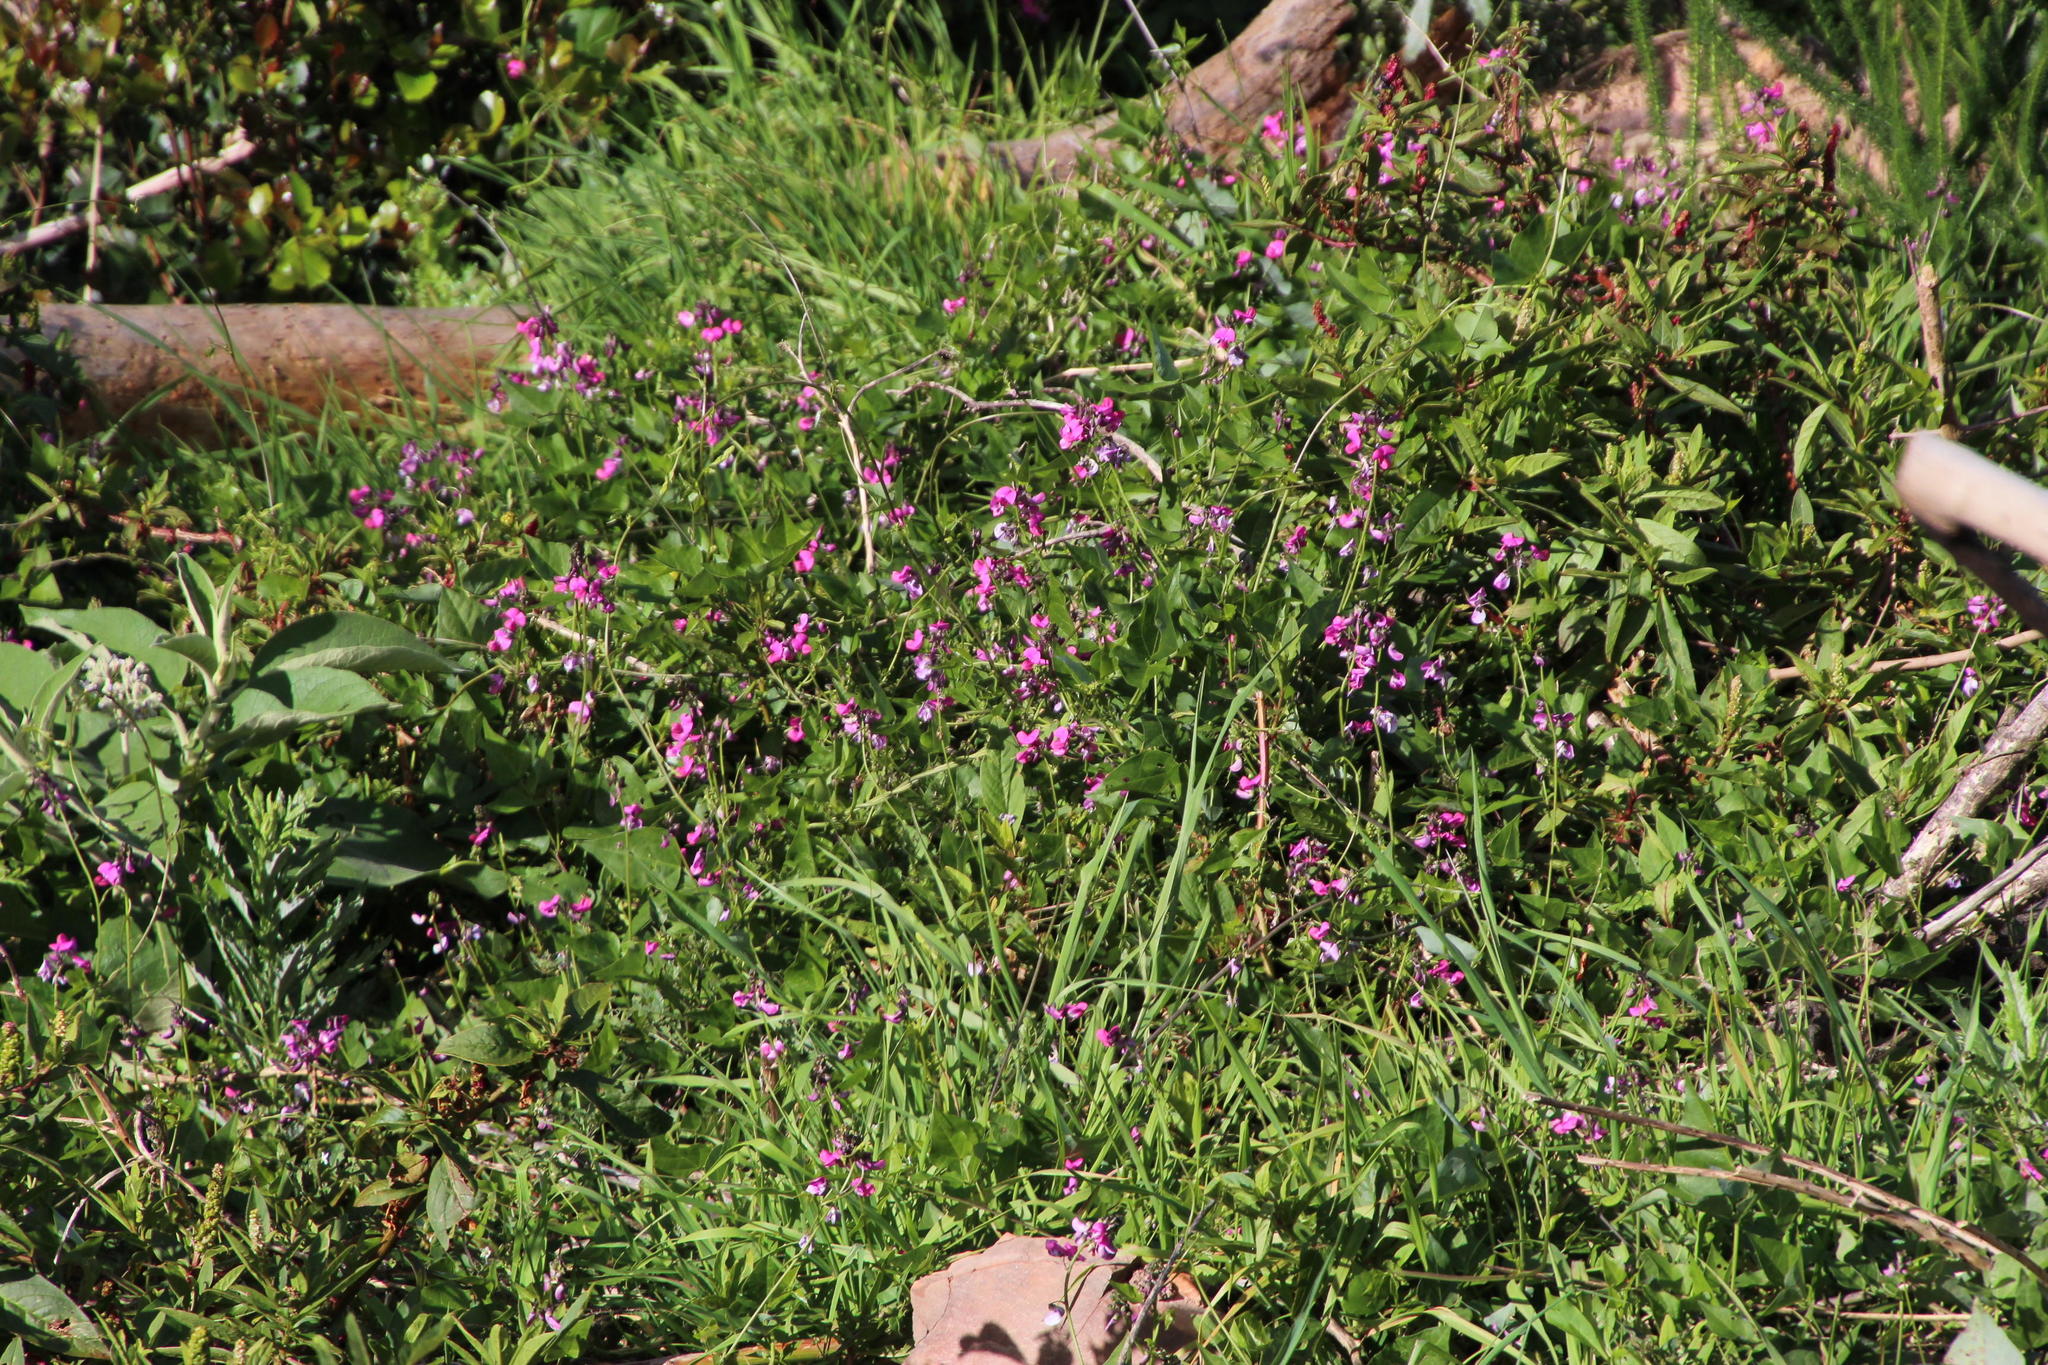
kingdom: Plantae
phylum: Tracheophyta
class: Magnoliopsida
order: Fabales
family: Fabaceae
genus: Dipogon
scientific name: Dipogon lignosus
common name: Okie bean
